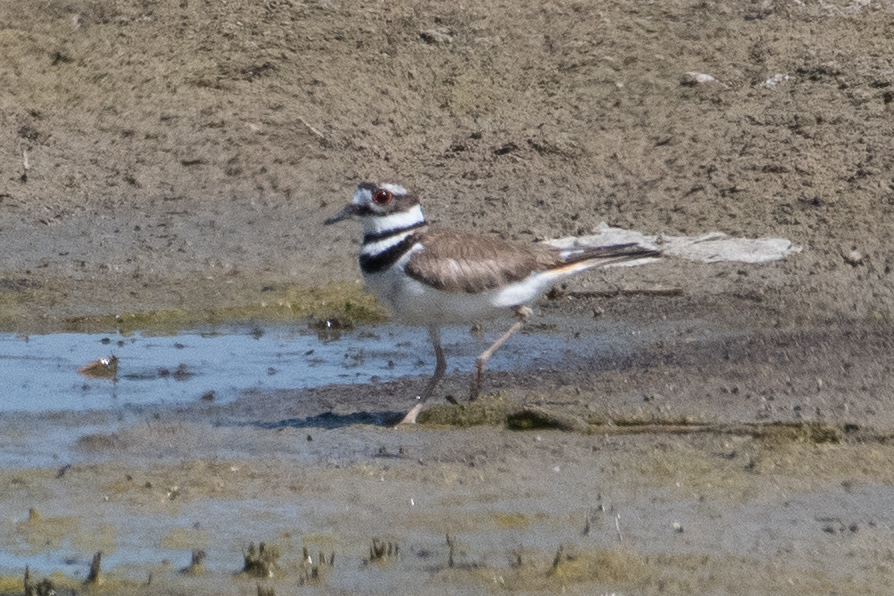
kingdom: Animalia
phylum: Chordata
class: Aves
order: Charadriiformes
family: Charadriidae
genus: Charadrius
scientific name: Charadrius vociferus
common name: Killdeer
